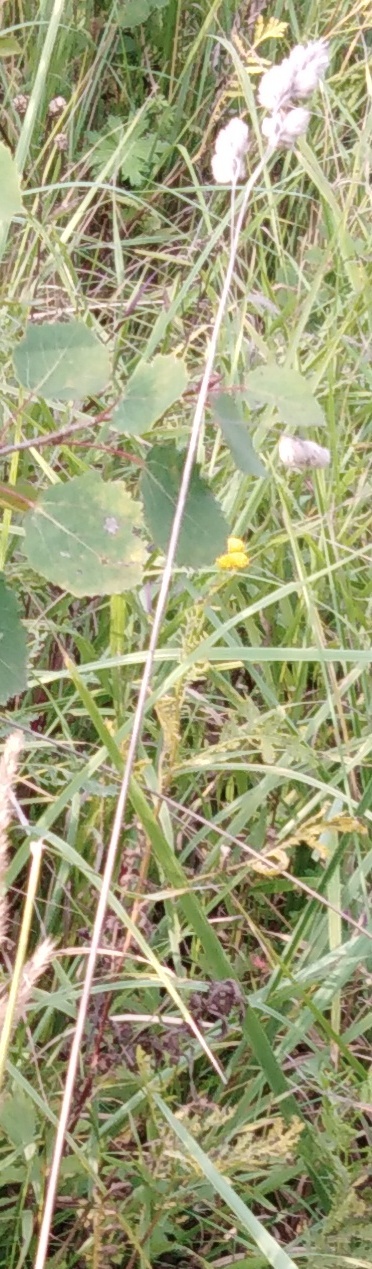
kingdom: Plantae
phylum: Tracheophyta
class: Liliopsida
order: Poales
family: Poaceae
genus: Dactylis
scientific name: Dactylis glomerata
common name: Orchardgrass
